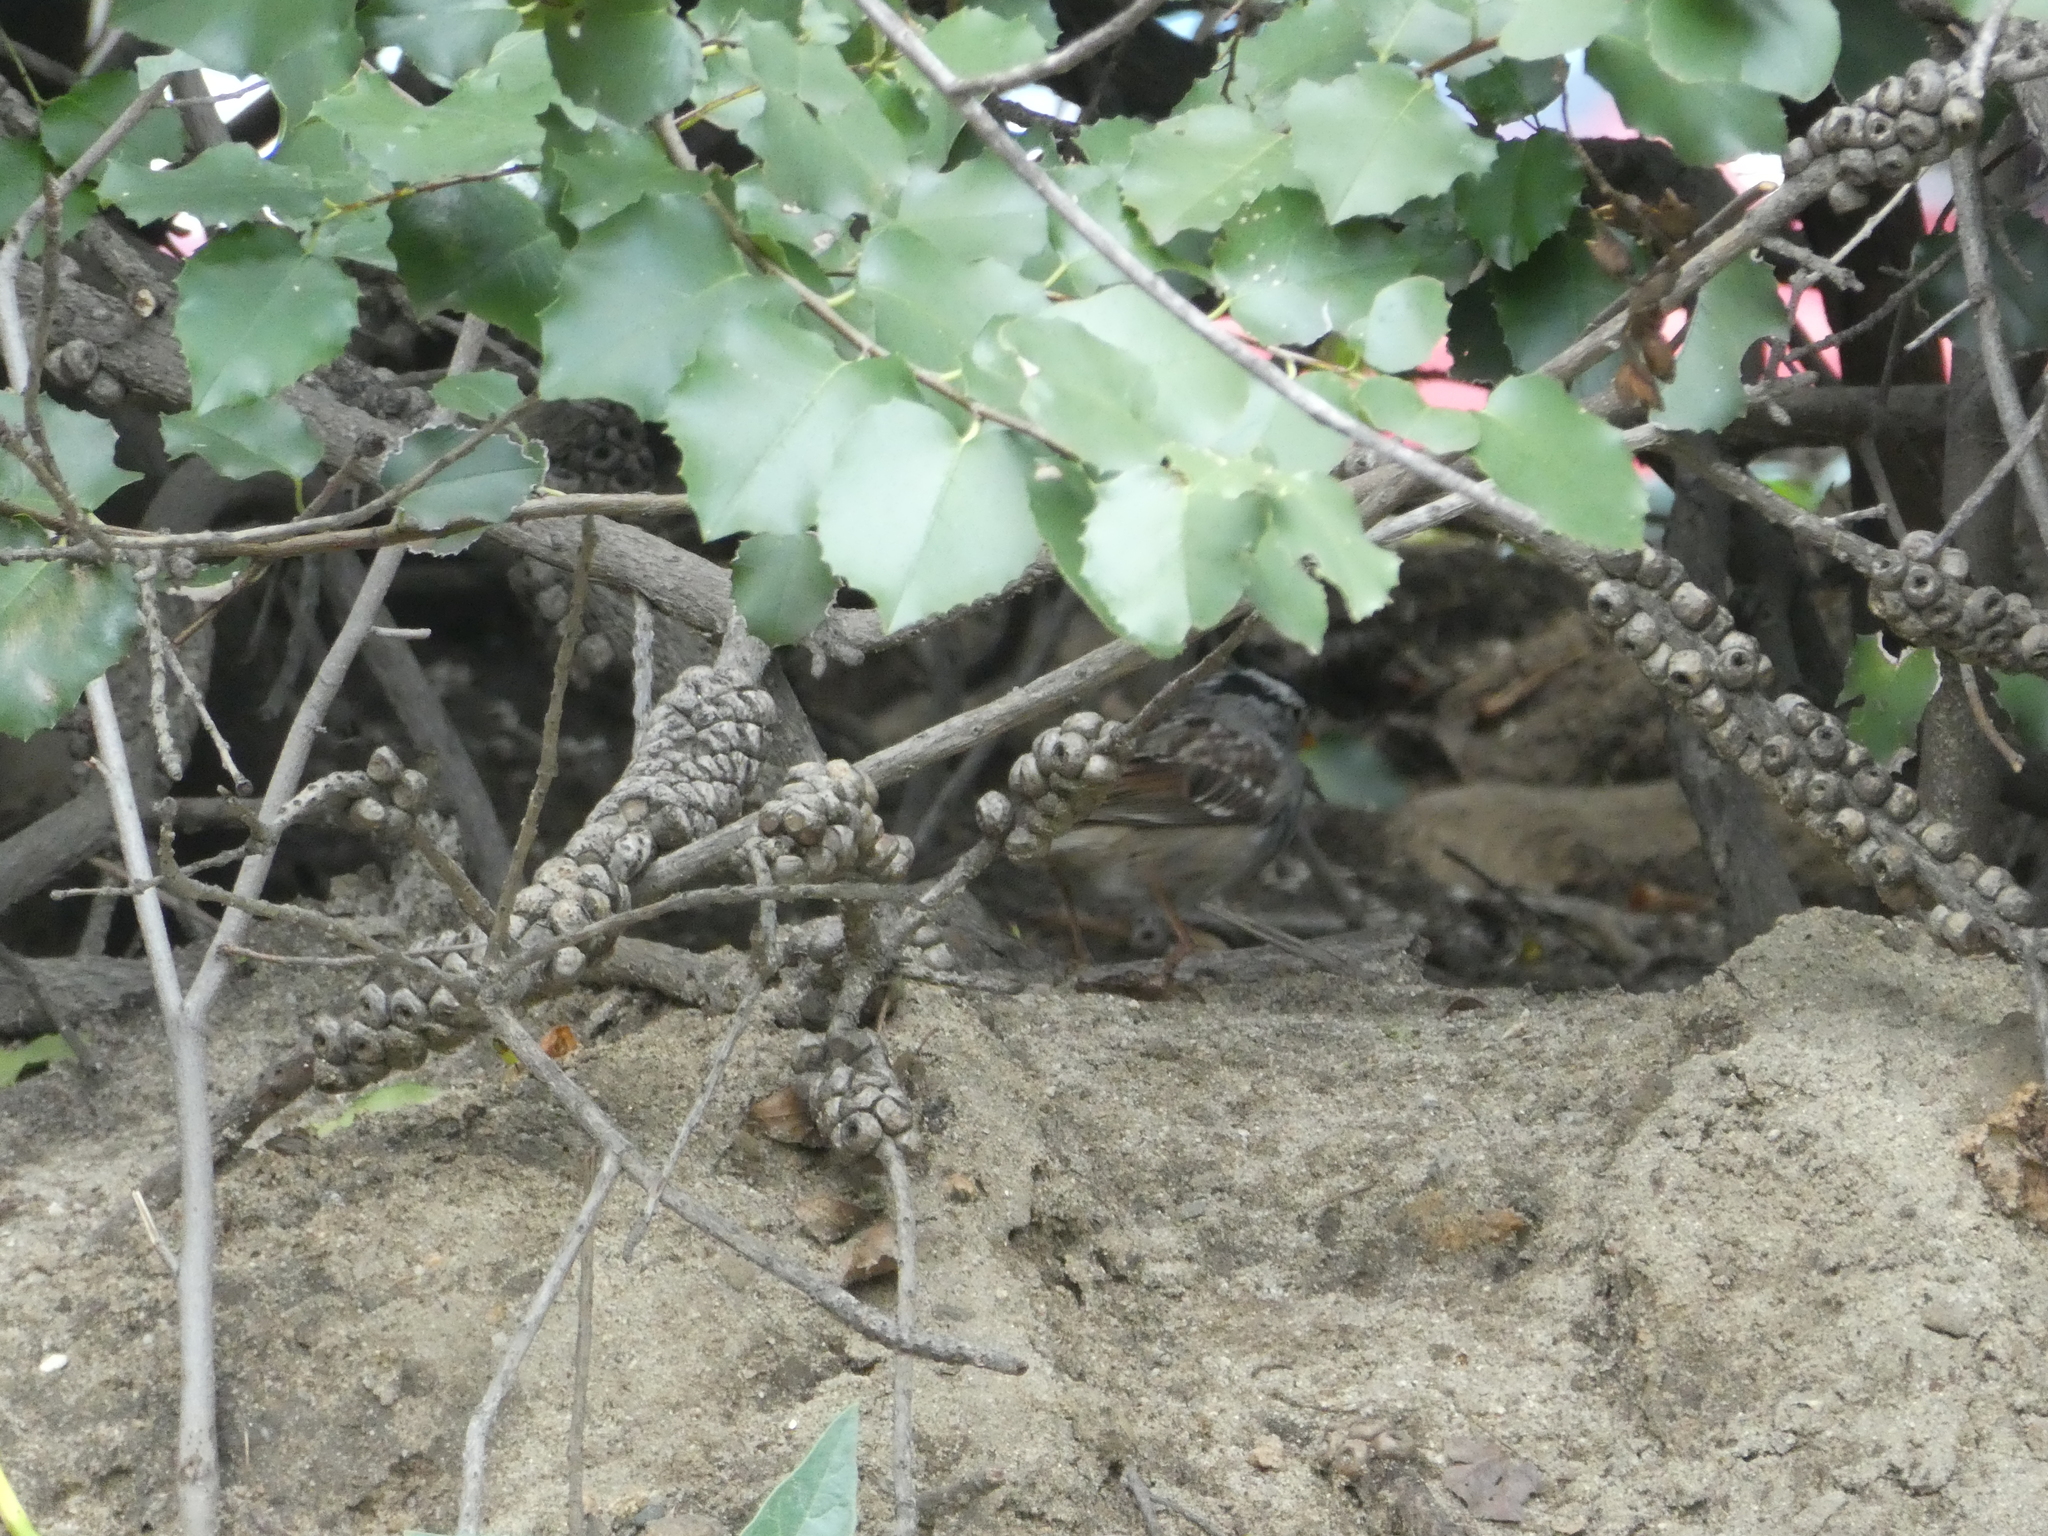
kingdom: Animalia
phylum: Chordata
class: Aves
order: Passeriformes
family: Passerellidae
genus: Zonotrichia
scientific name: Zonotrichia leucophrys
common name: White-crowned sparrow
